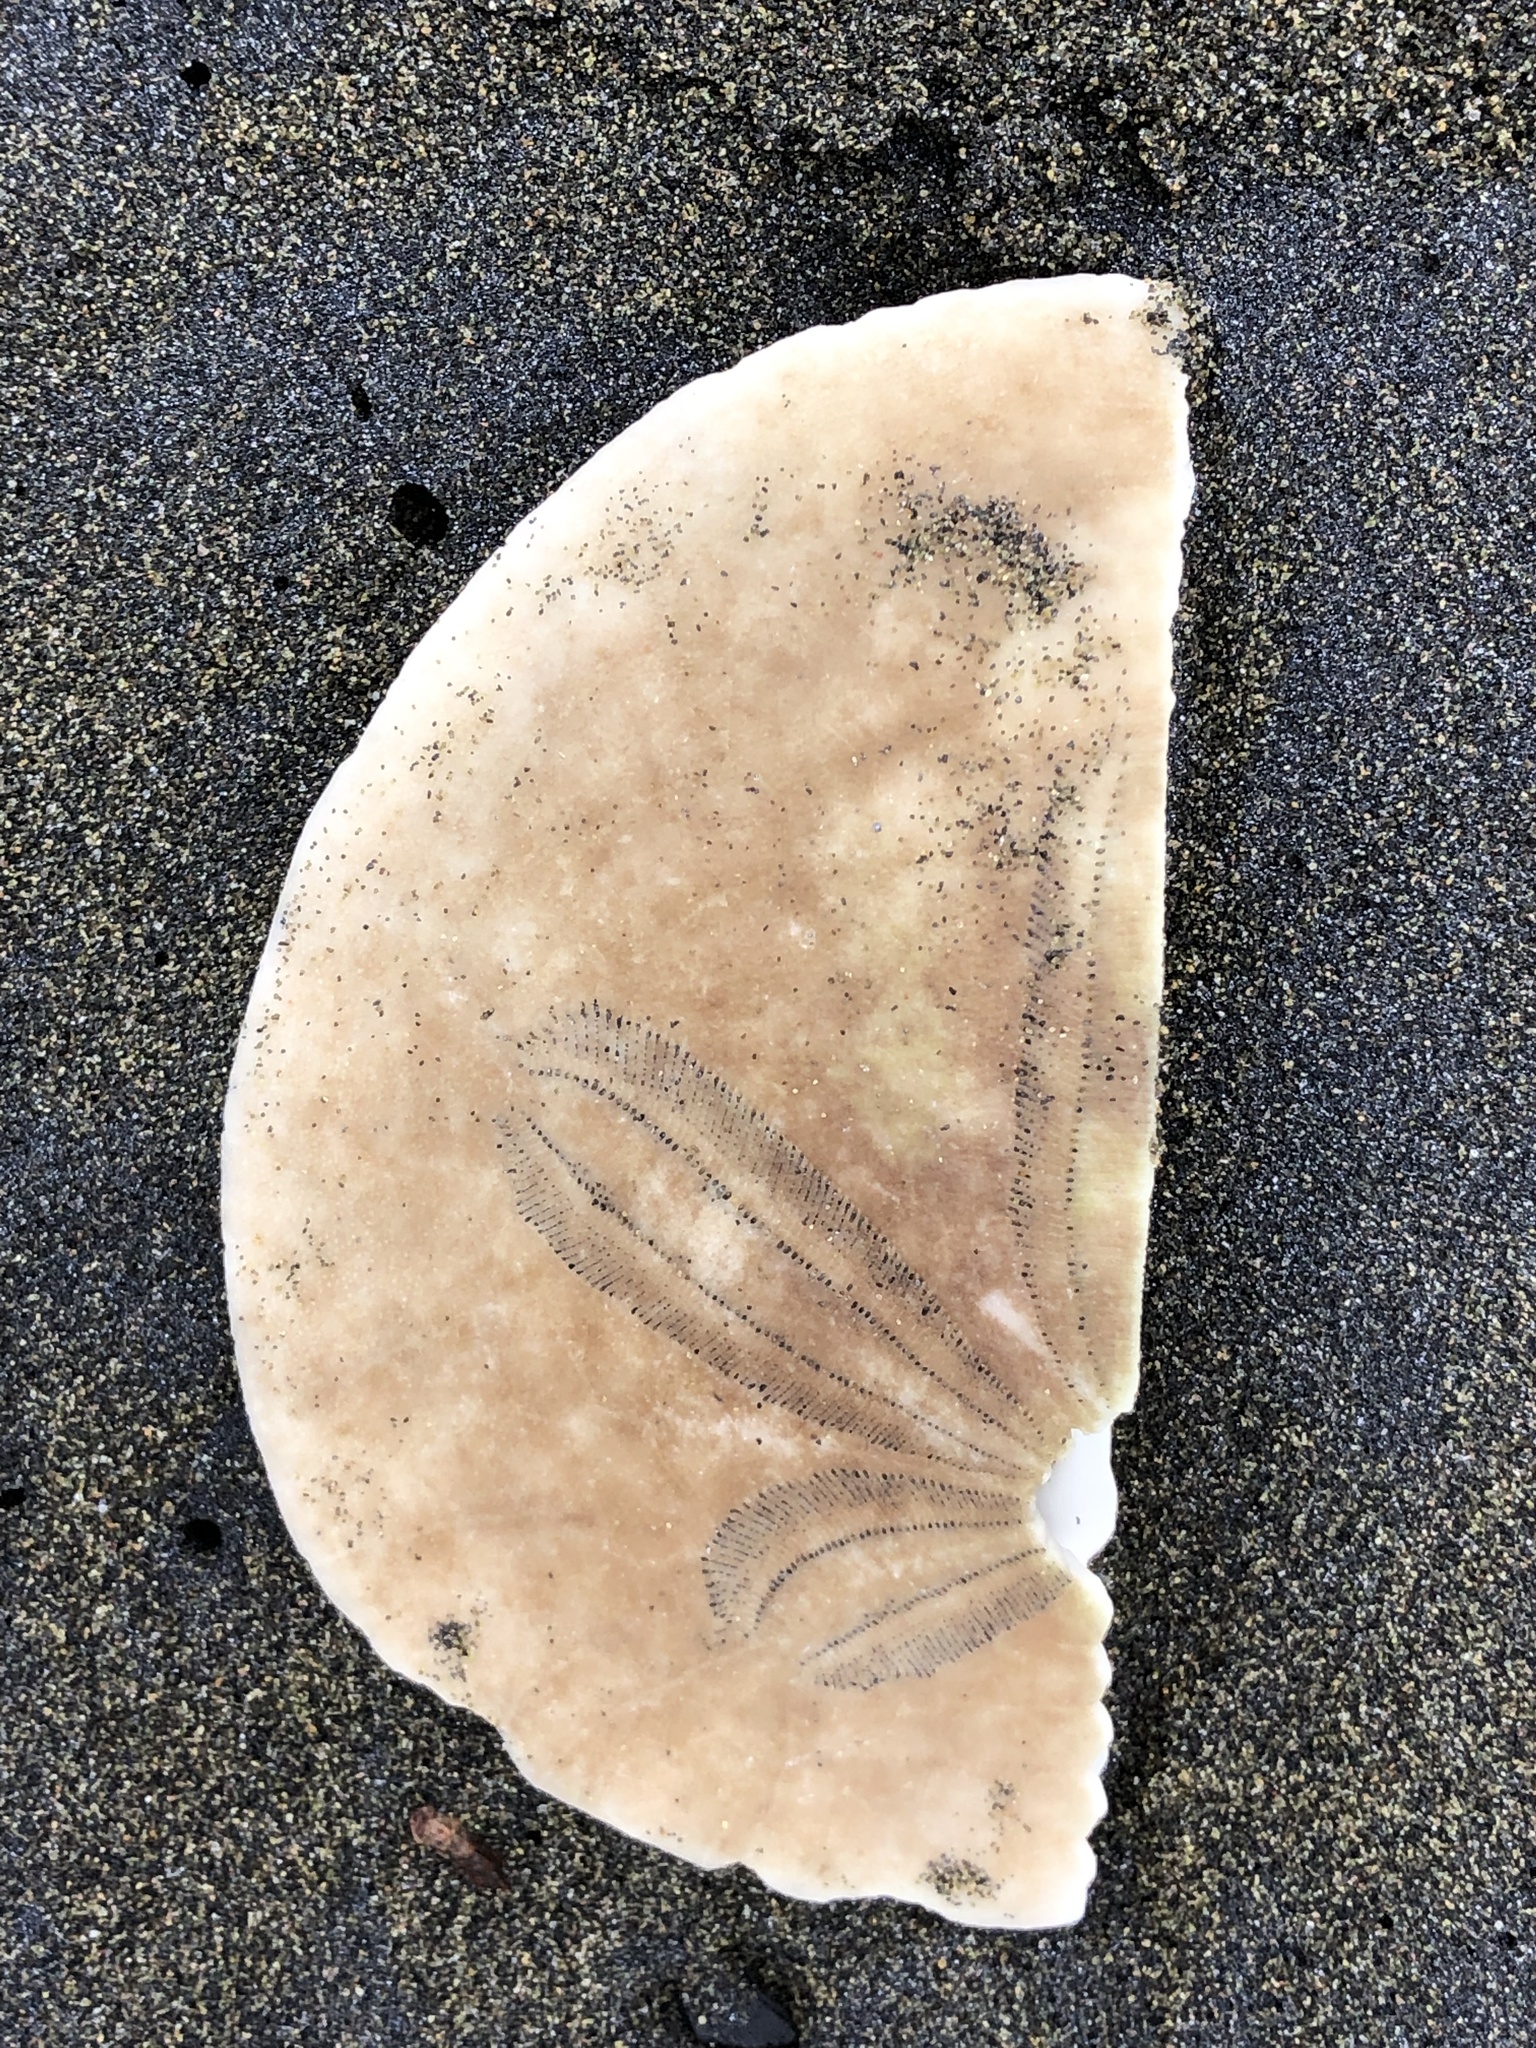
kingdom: Animalia
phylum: Echinodermata
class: Echinoidea
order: Echinolampadacea
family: Dendrasteridae
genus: Dendraster
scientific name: Dendraster excentricus
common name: Eccentric sand dollar sea urchin
